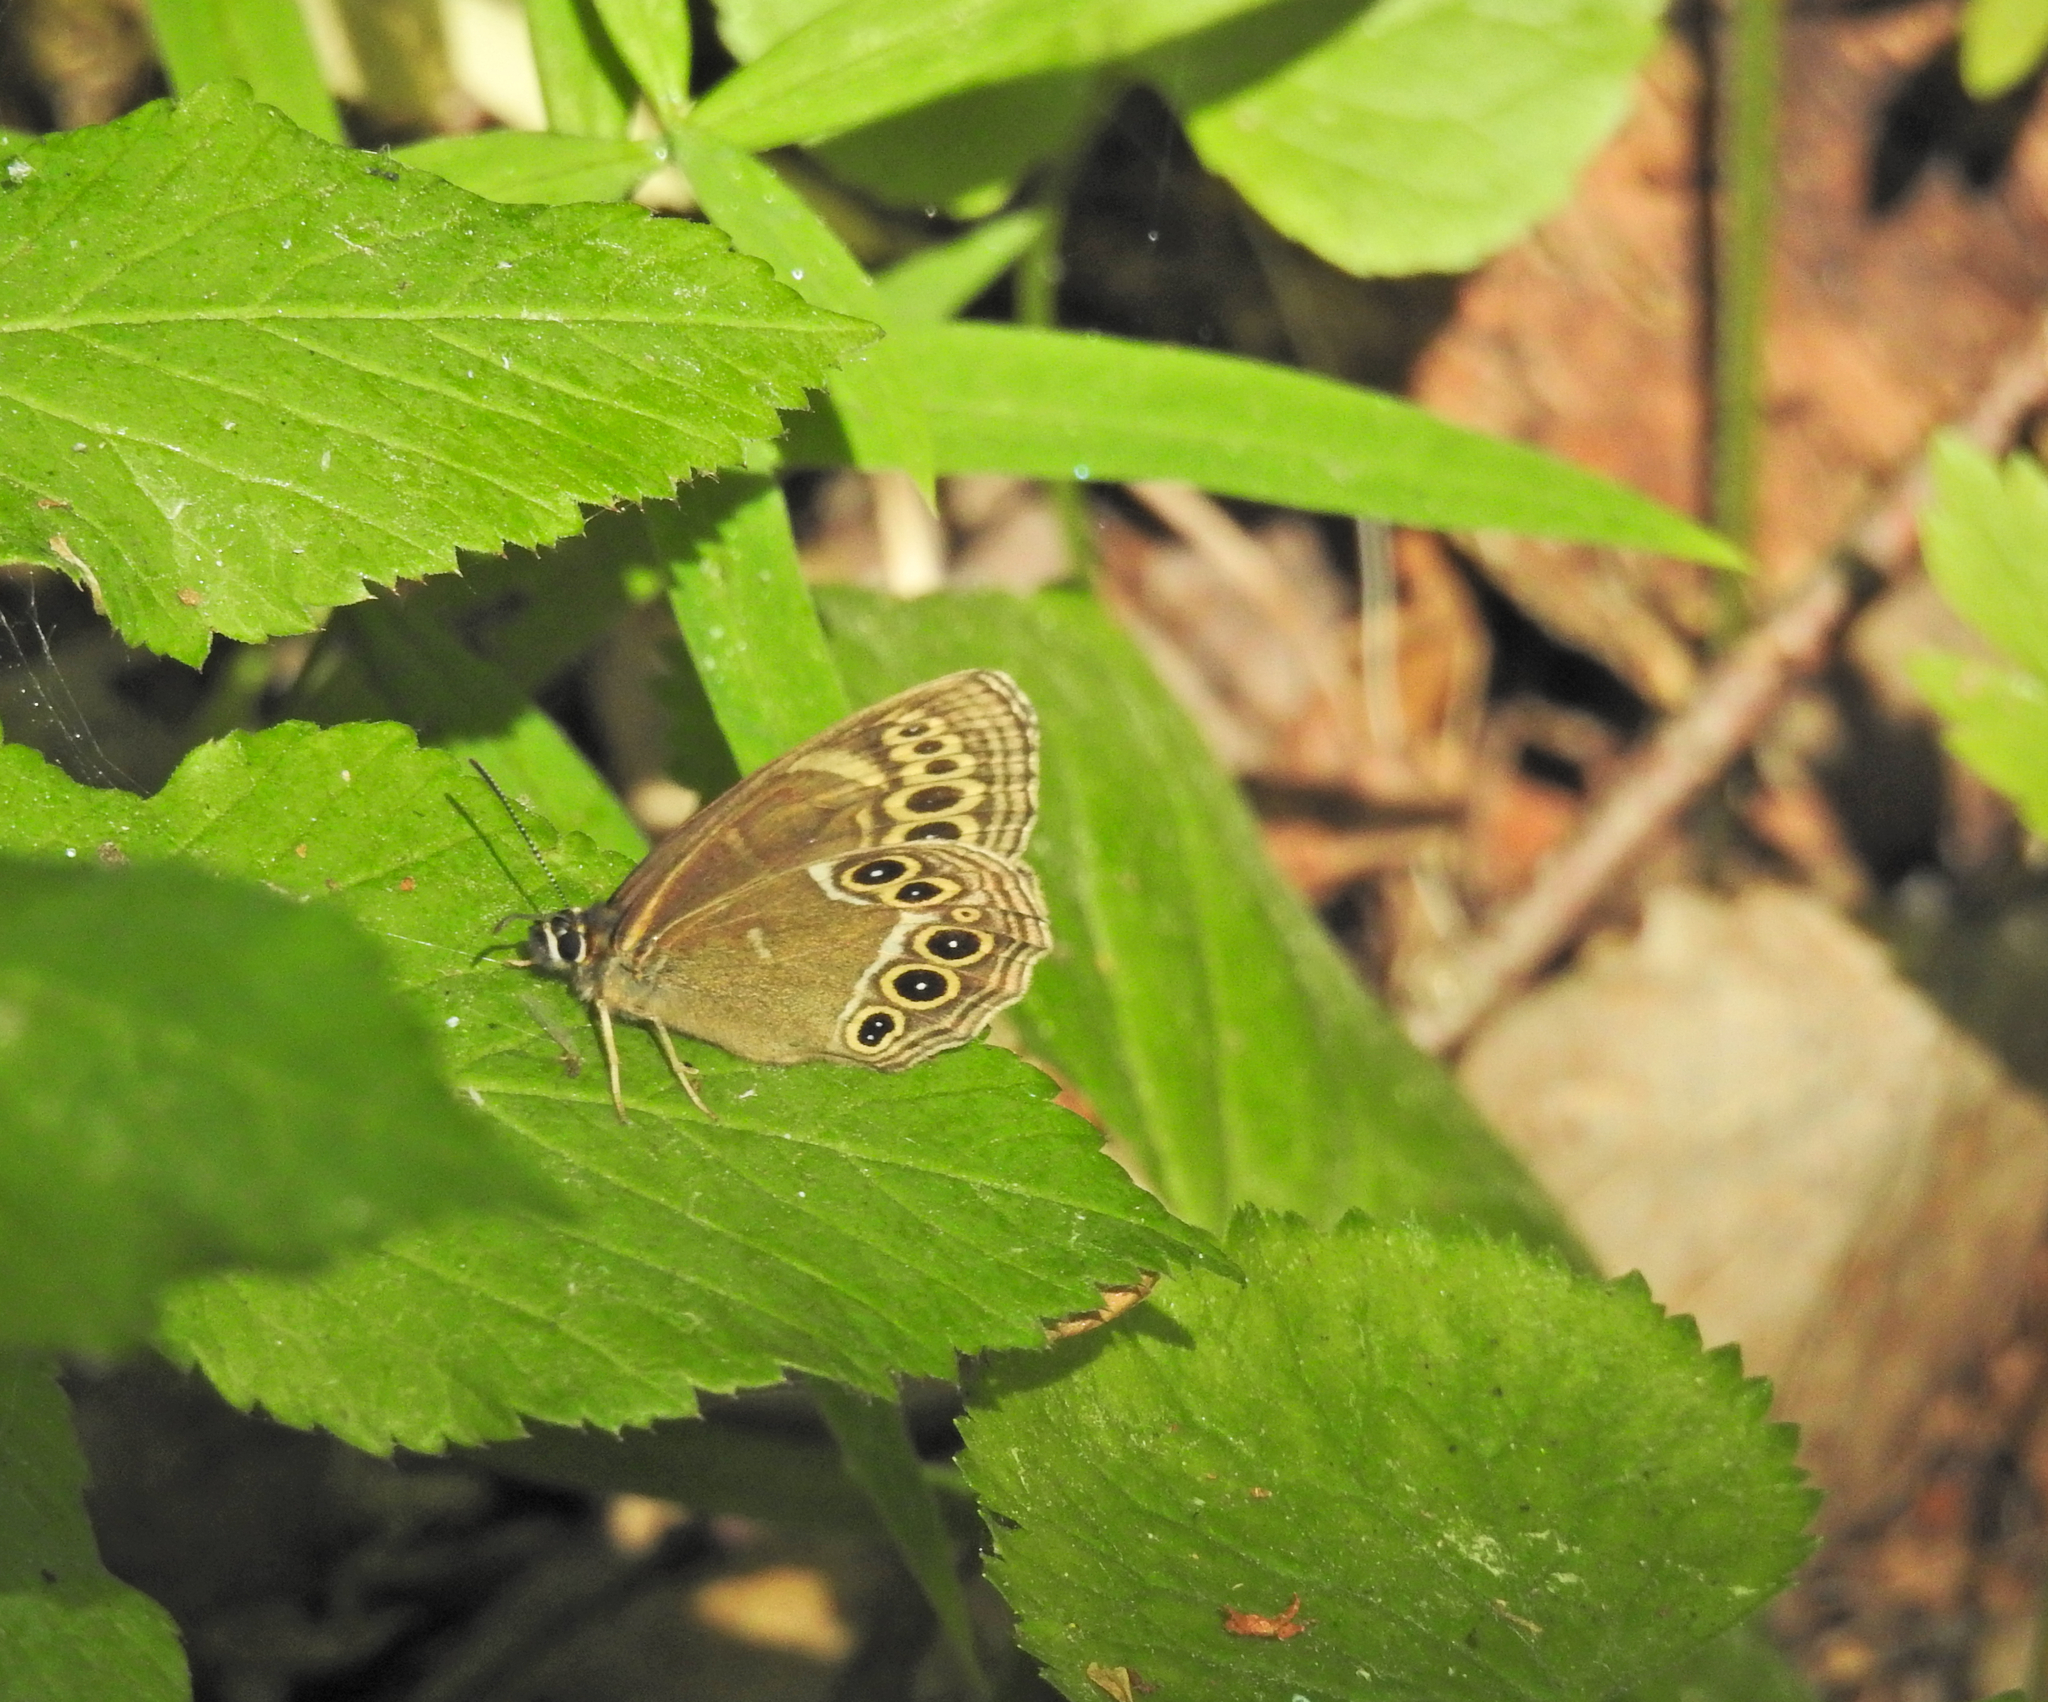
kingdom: Animalia
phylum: Arthropoda
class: Insecta
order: Lepidoptera
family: Nymphalidae
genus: Pararge
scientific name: Pararge Lopinga achine
